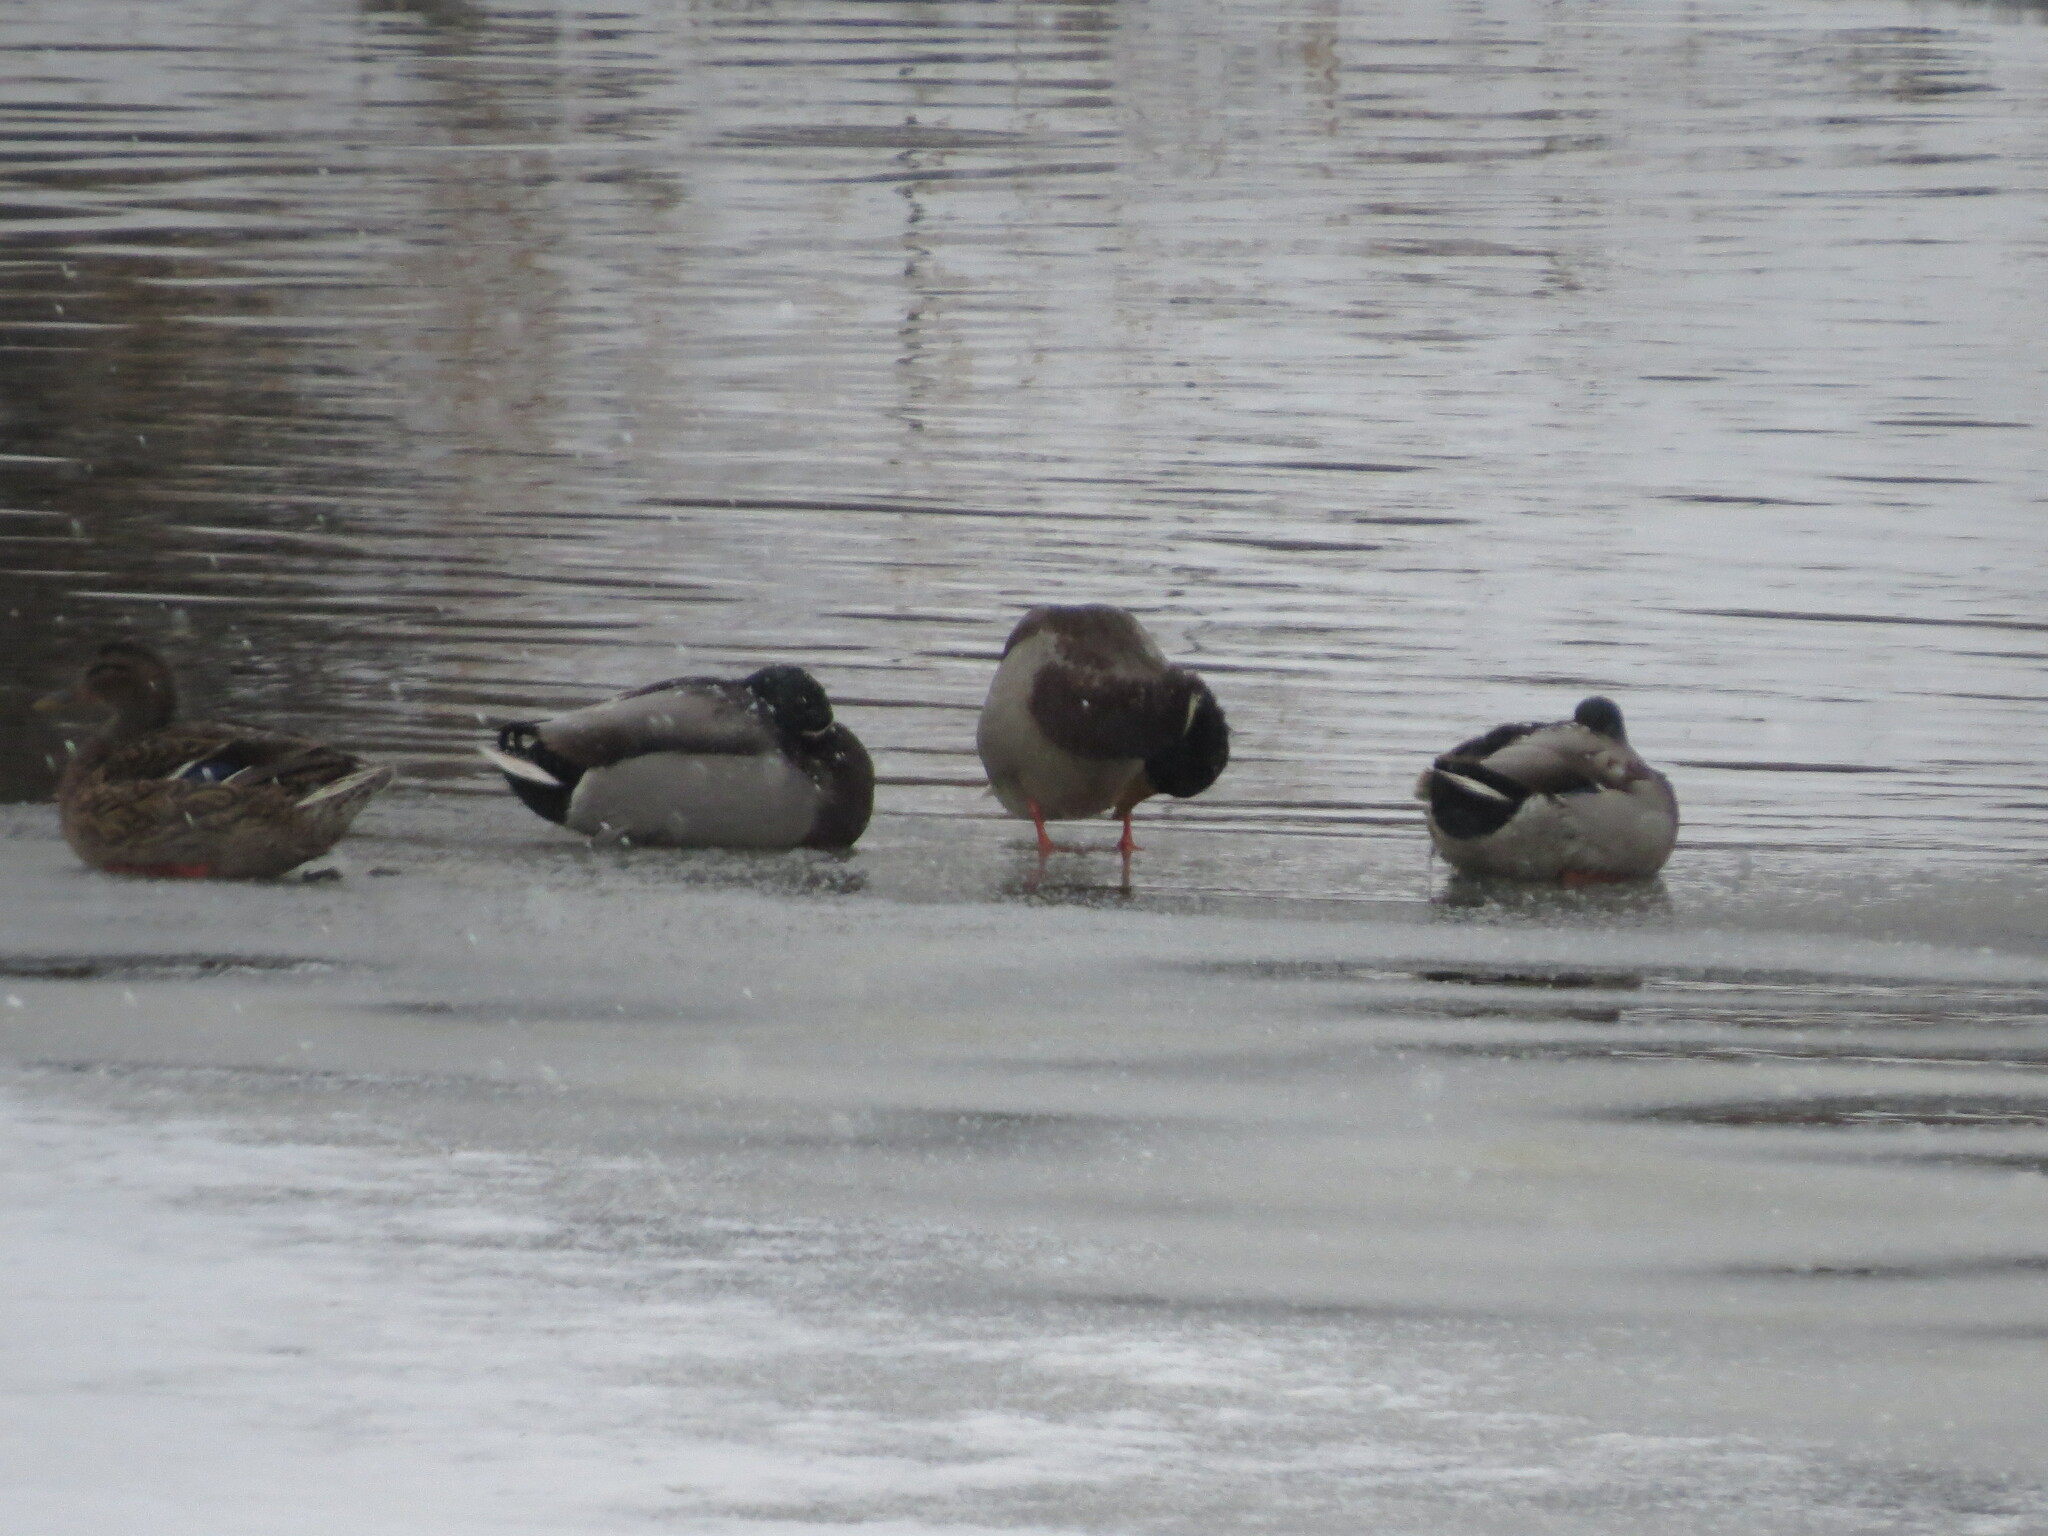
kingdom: Animalia
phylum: Chordata
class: Aves
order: Anseriformes
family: Anatidae
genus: Anas
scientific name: Anas platyrhynchos
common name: Mallard
